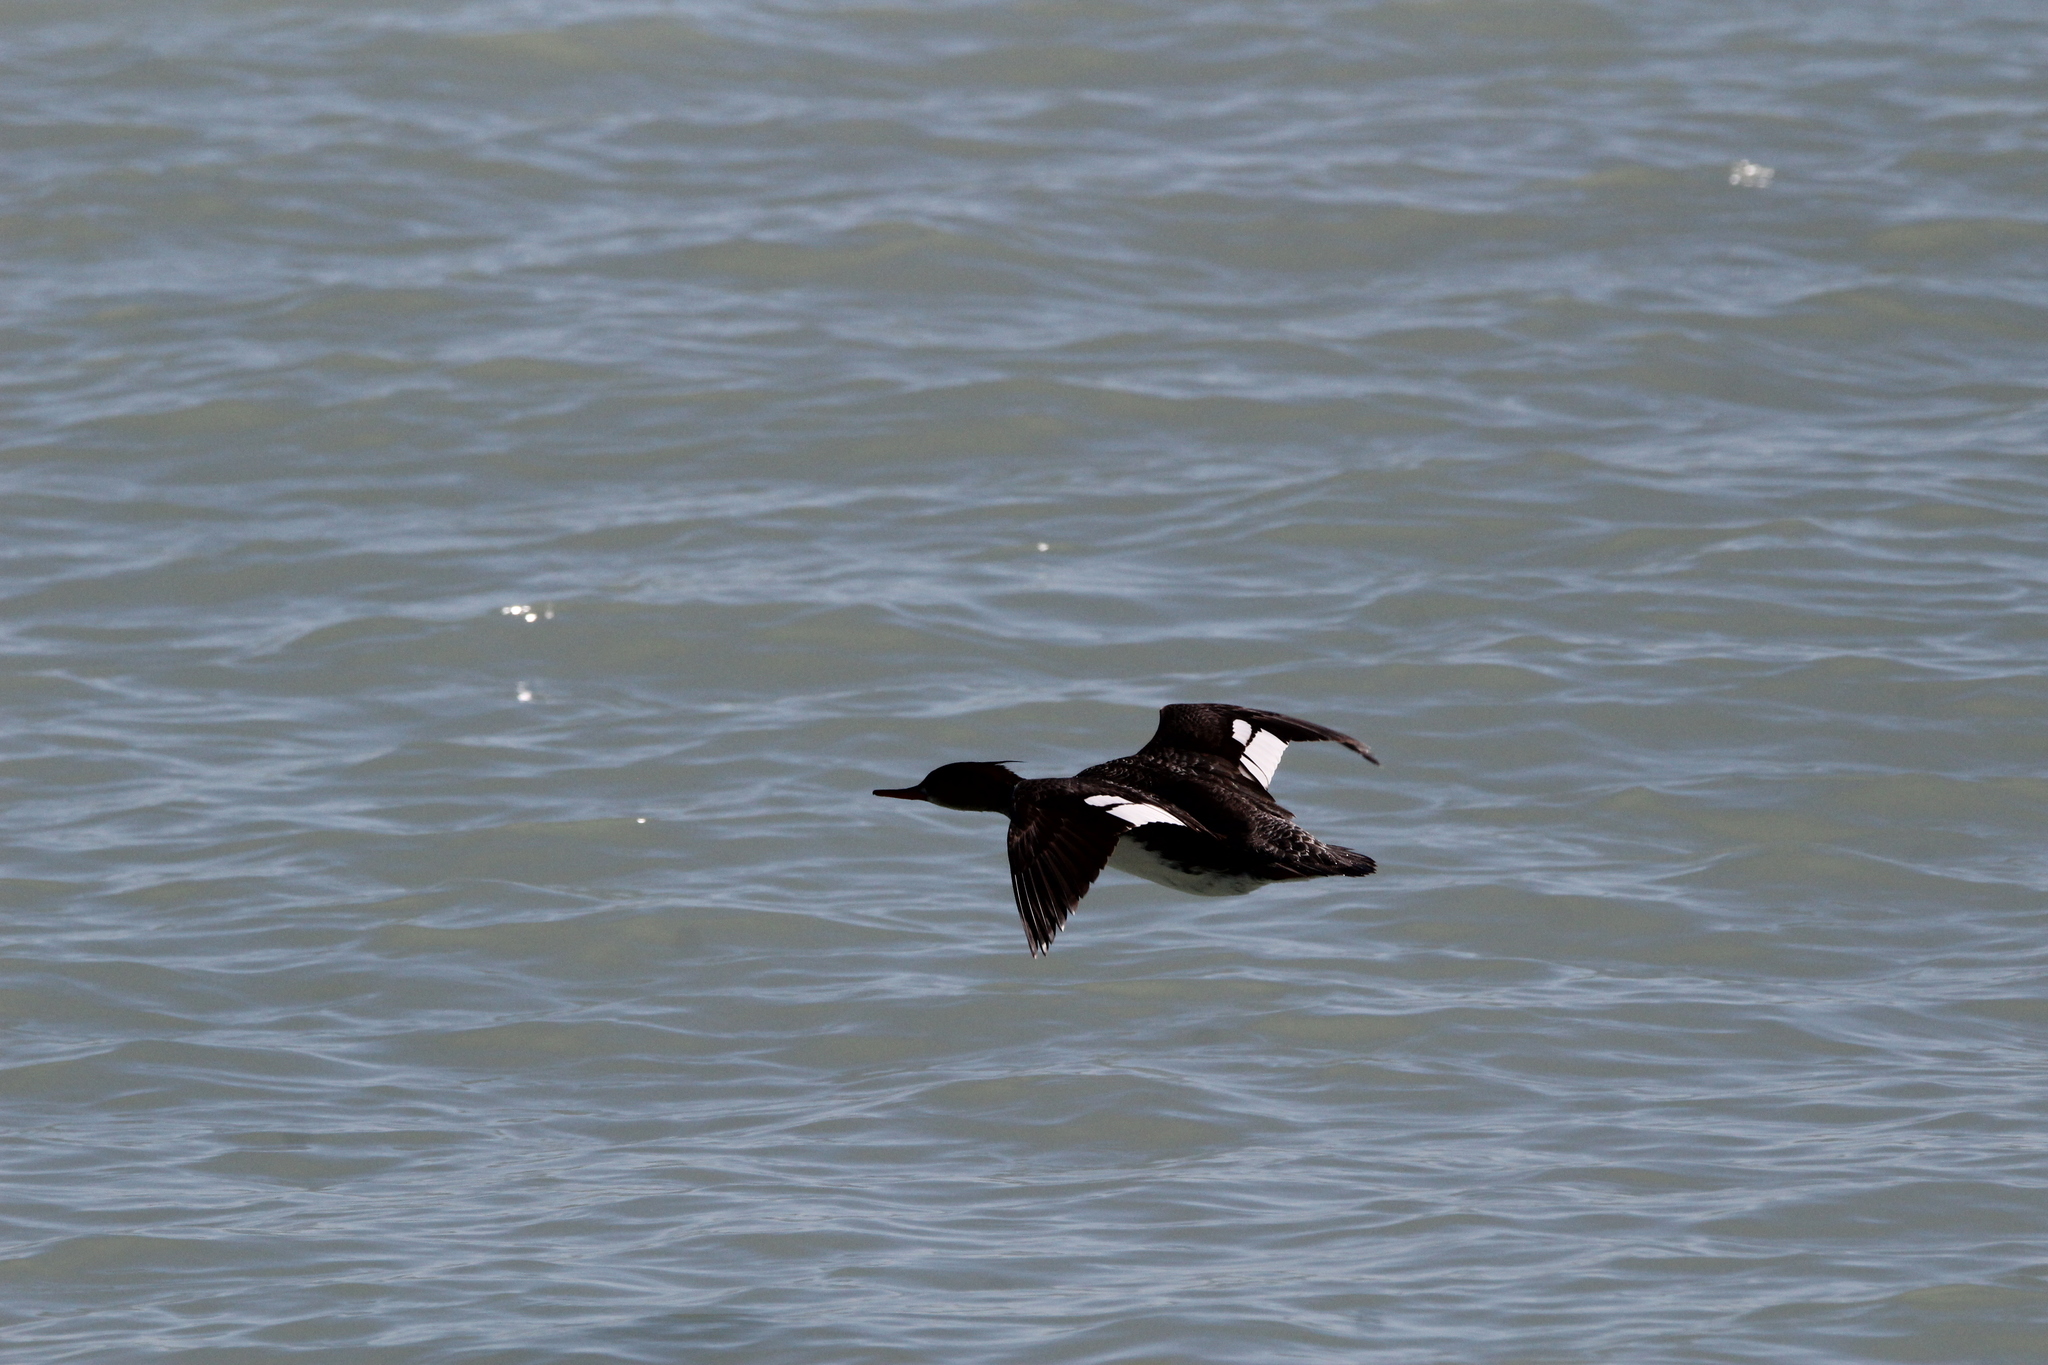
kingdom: Animalia
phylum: Chordata
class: Aves
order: Anseriformes
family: Anatidae
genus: Mergus
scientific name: Mergus serrator
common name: Red-breasted merganser
